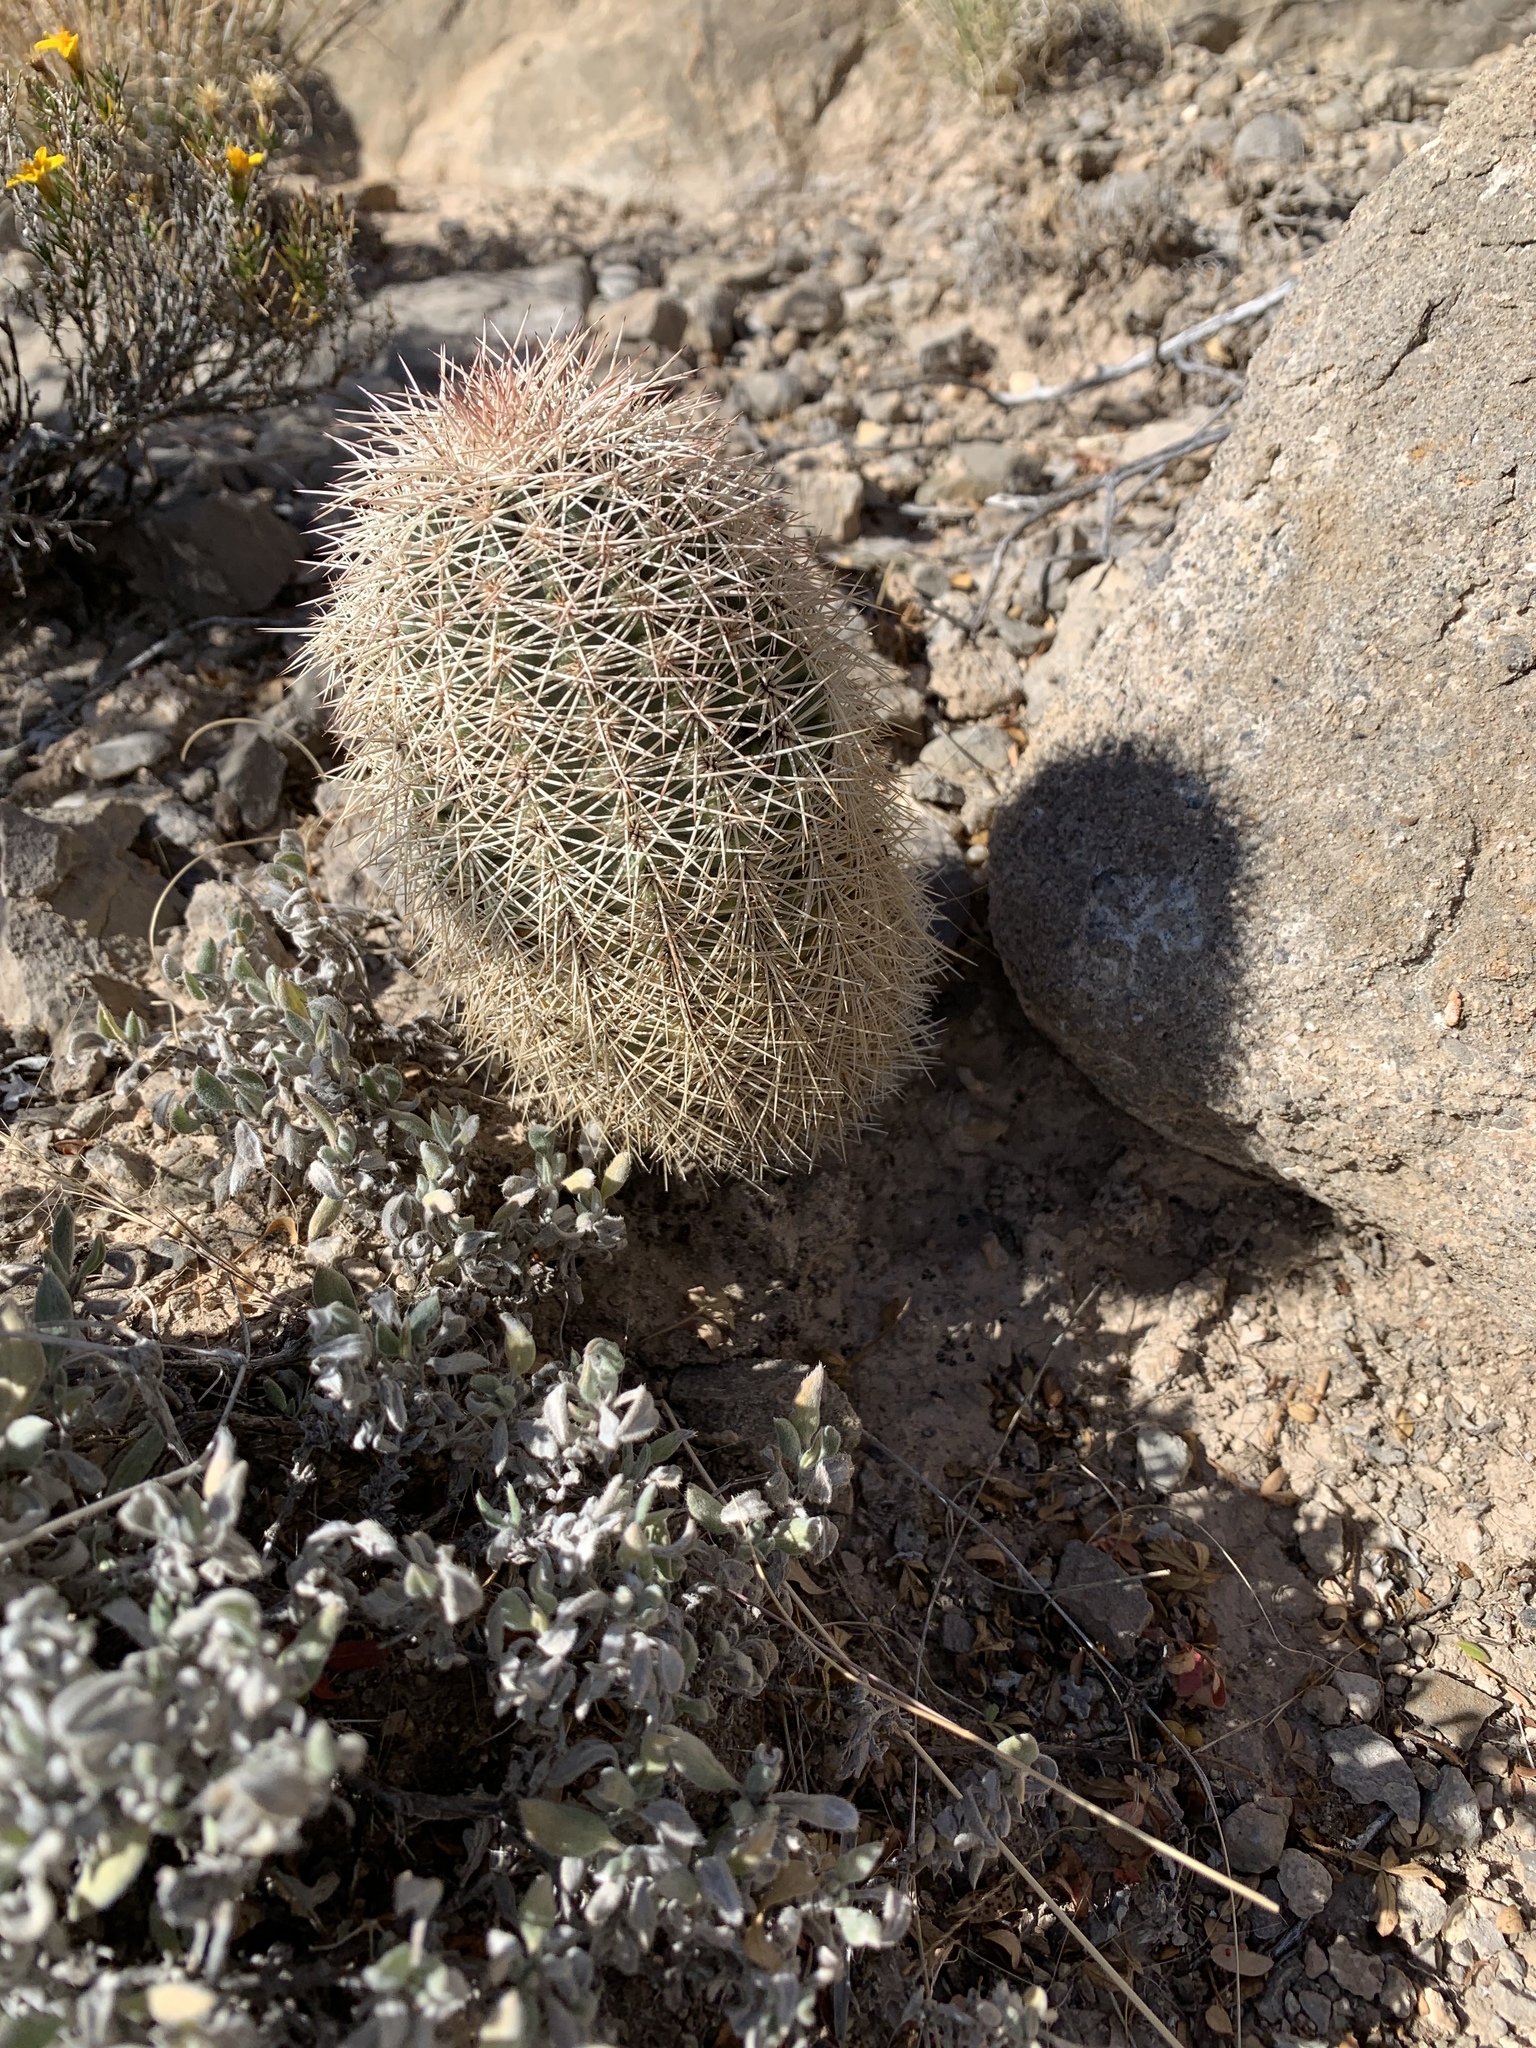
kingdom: Plantae
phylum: Tracheophyta
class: Magnoliopsida
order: Caryophyllales
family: Cactaceae
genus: Echinocereus
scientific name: Echinocereus dasyacanthus
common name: Spiny hedgehog cactus
